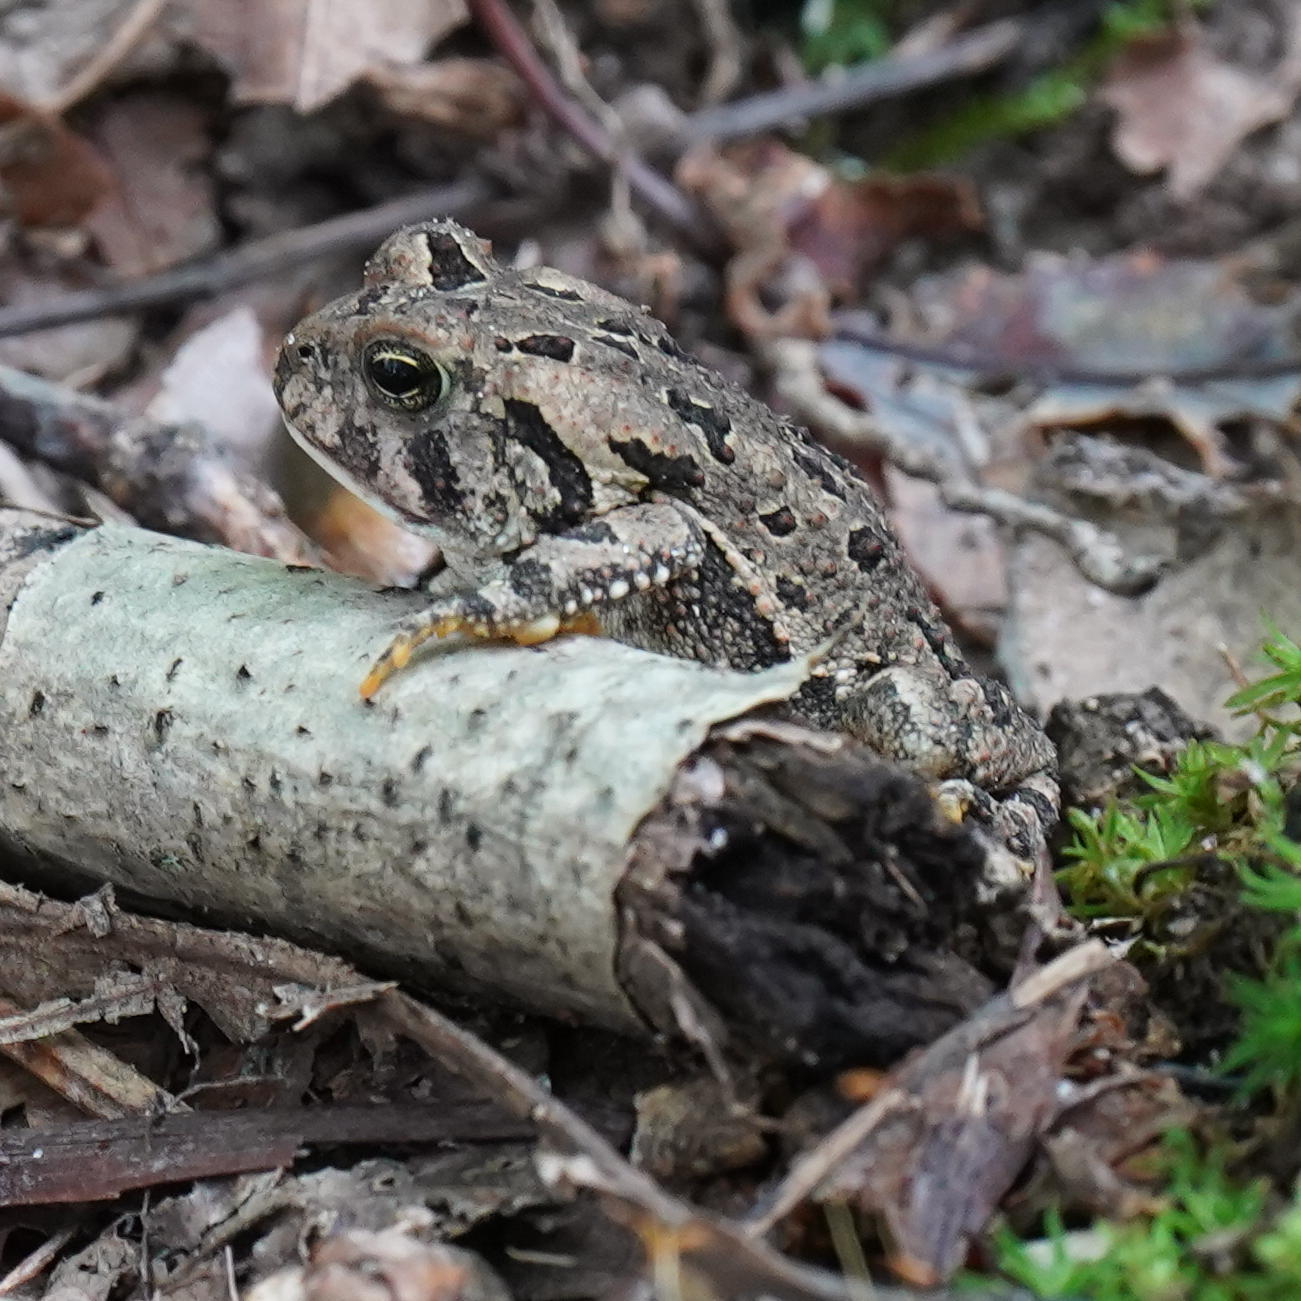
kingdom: Animalia
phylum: Chordata
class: Amphibia
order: Anura
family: Bufonidae
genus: Anaxyrus
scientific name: Anaxyrus fowleri
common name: Fowler's toad
